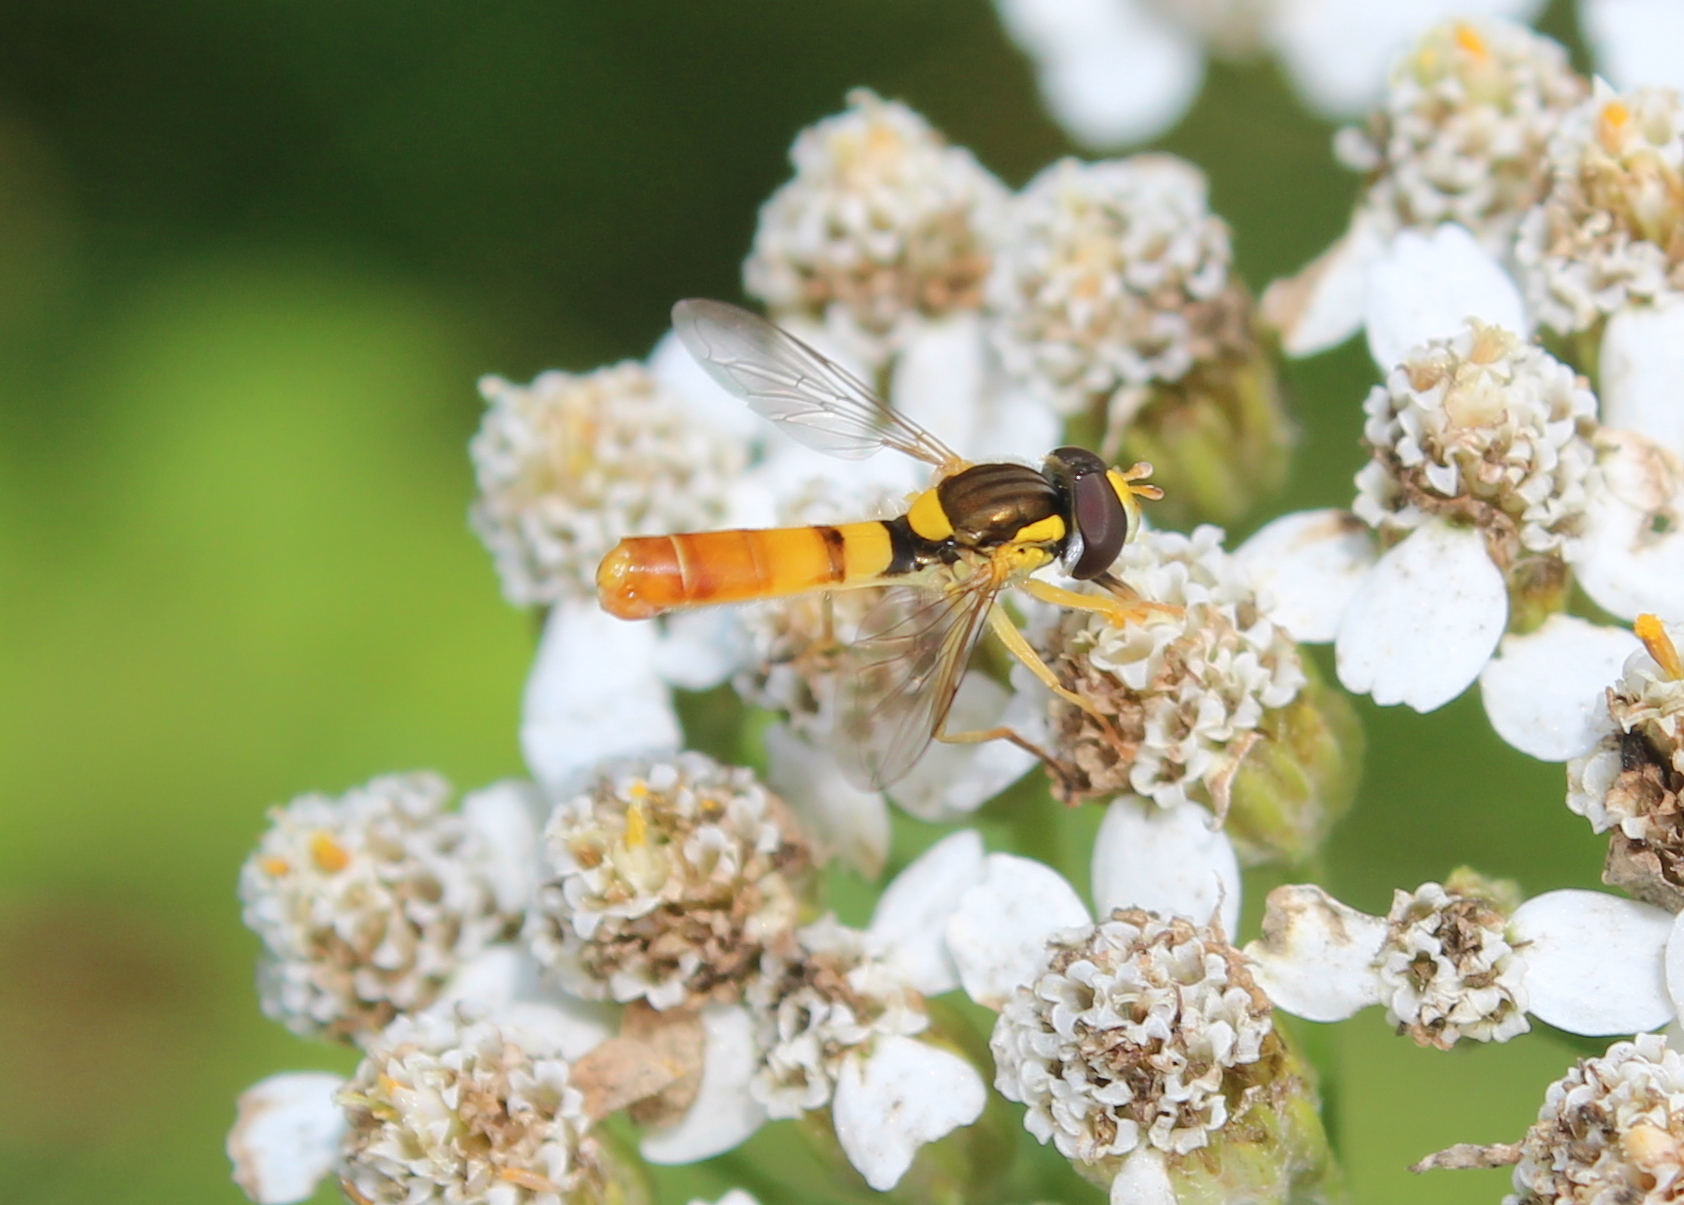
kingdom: Animalia
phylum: Arthropoda
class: Insecta
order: Diptera
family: Syrphidae
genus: Sphaerophoria
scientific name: Sphaerophoria contigua
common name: Tufted globetail
